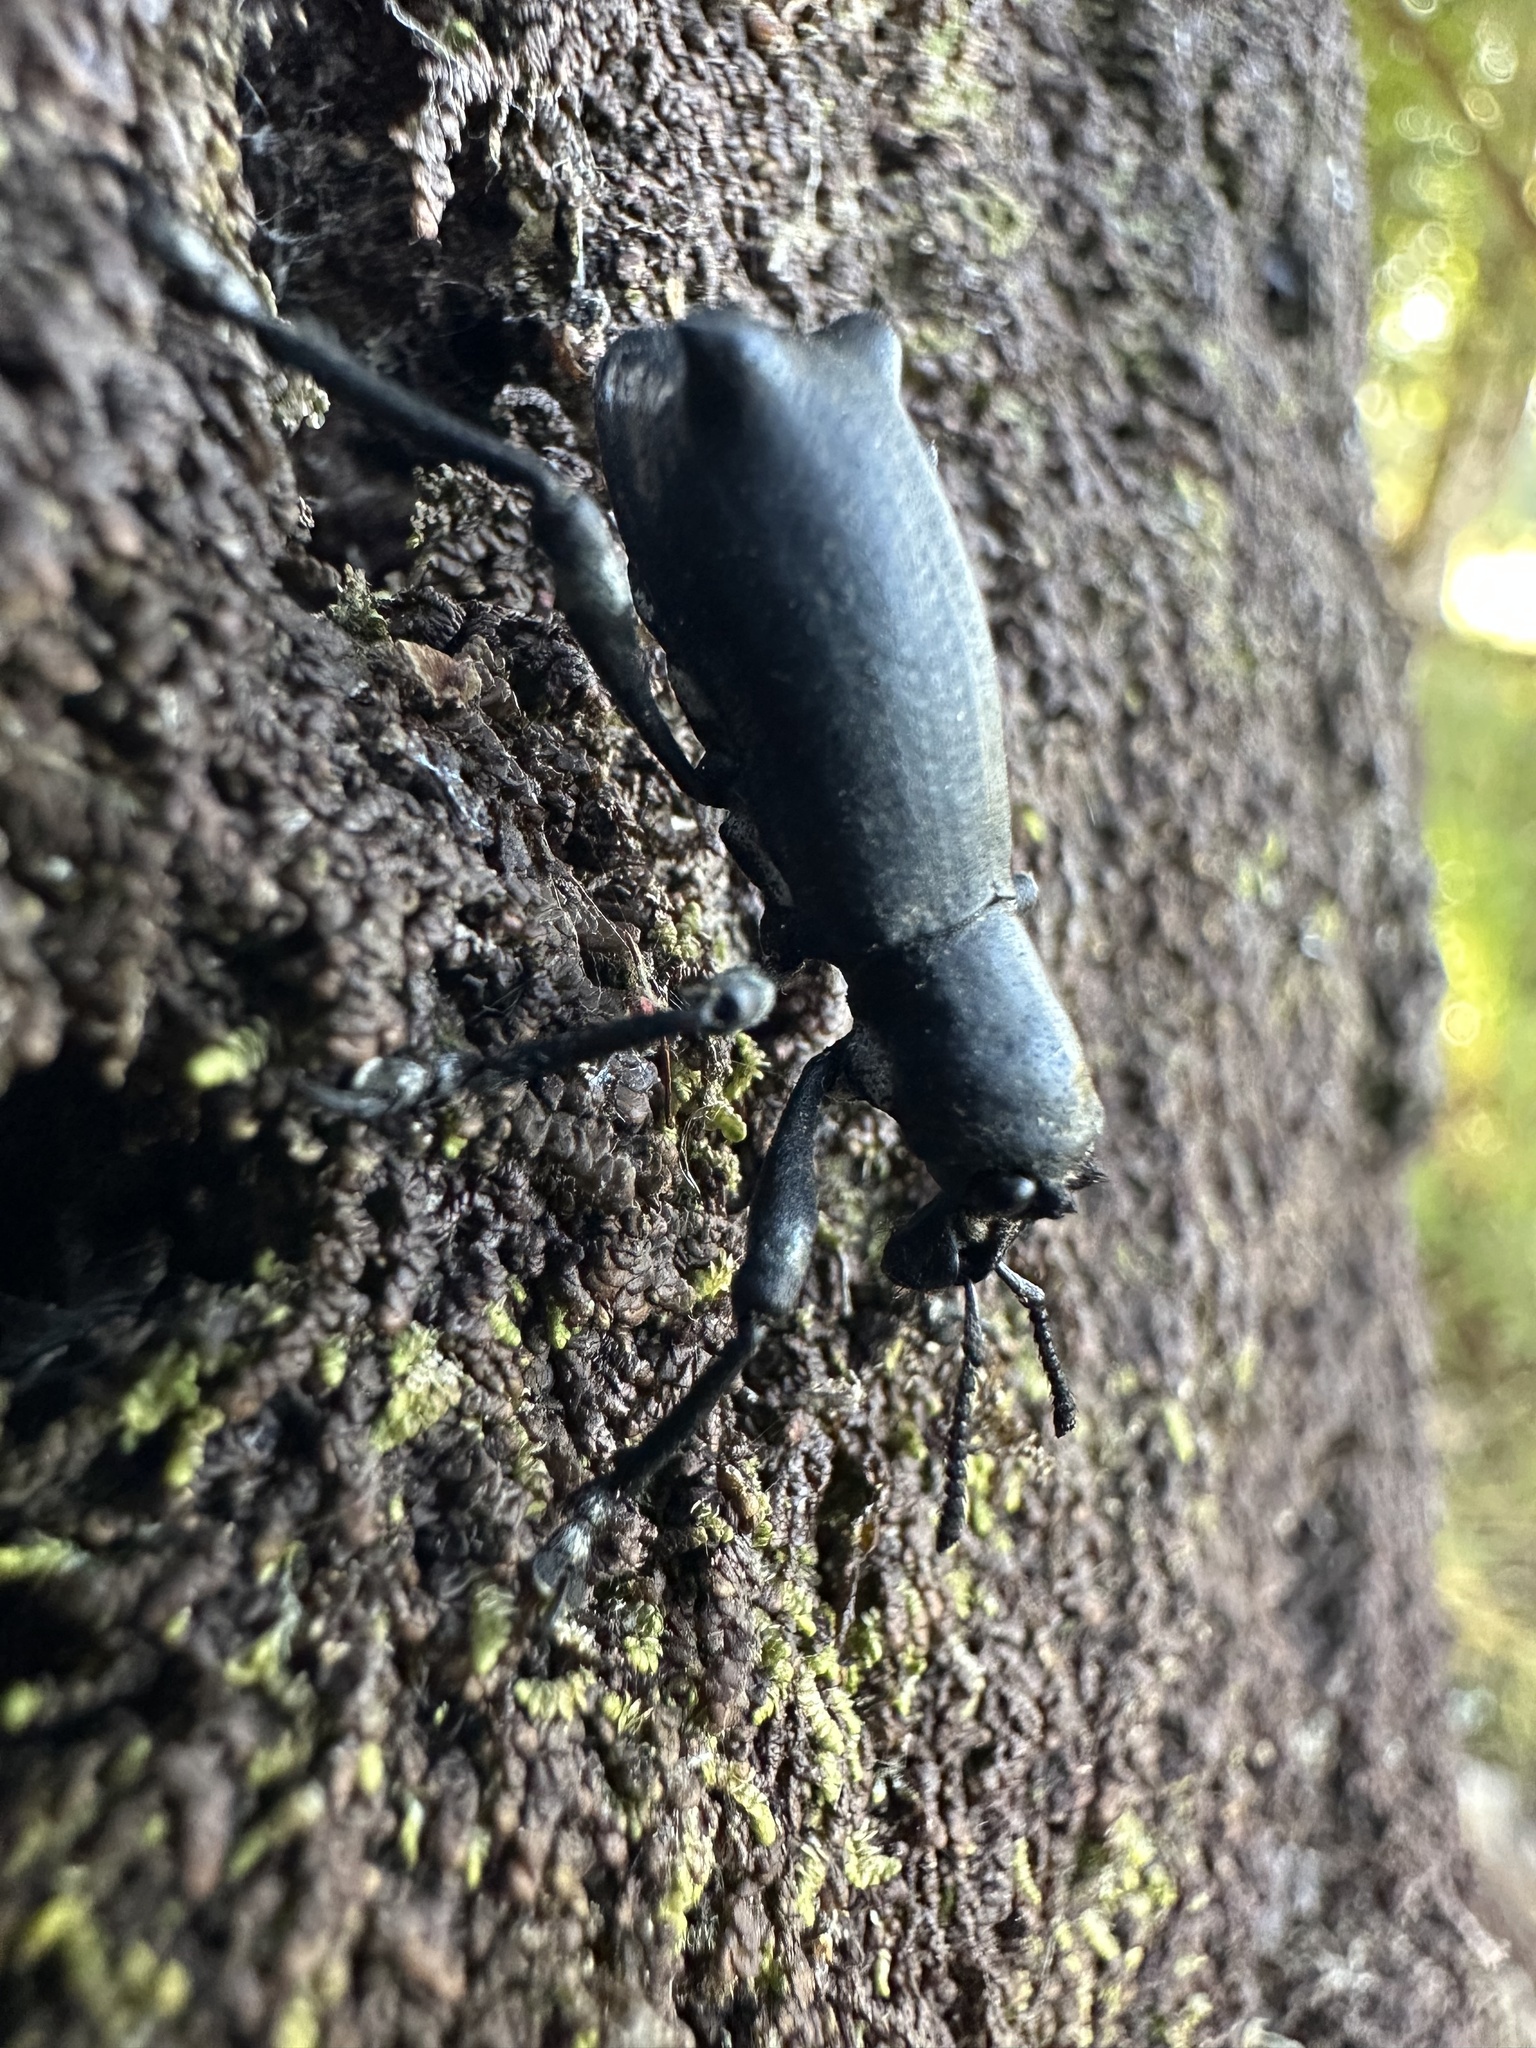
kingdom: Animalia
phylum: Arthropoda
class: Insecta
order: Coleoptera
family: Curculionidae
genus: Aegorhinus
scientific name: Aegorhinus
